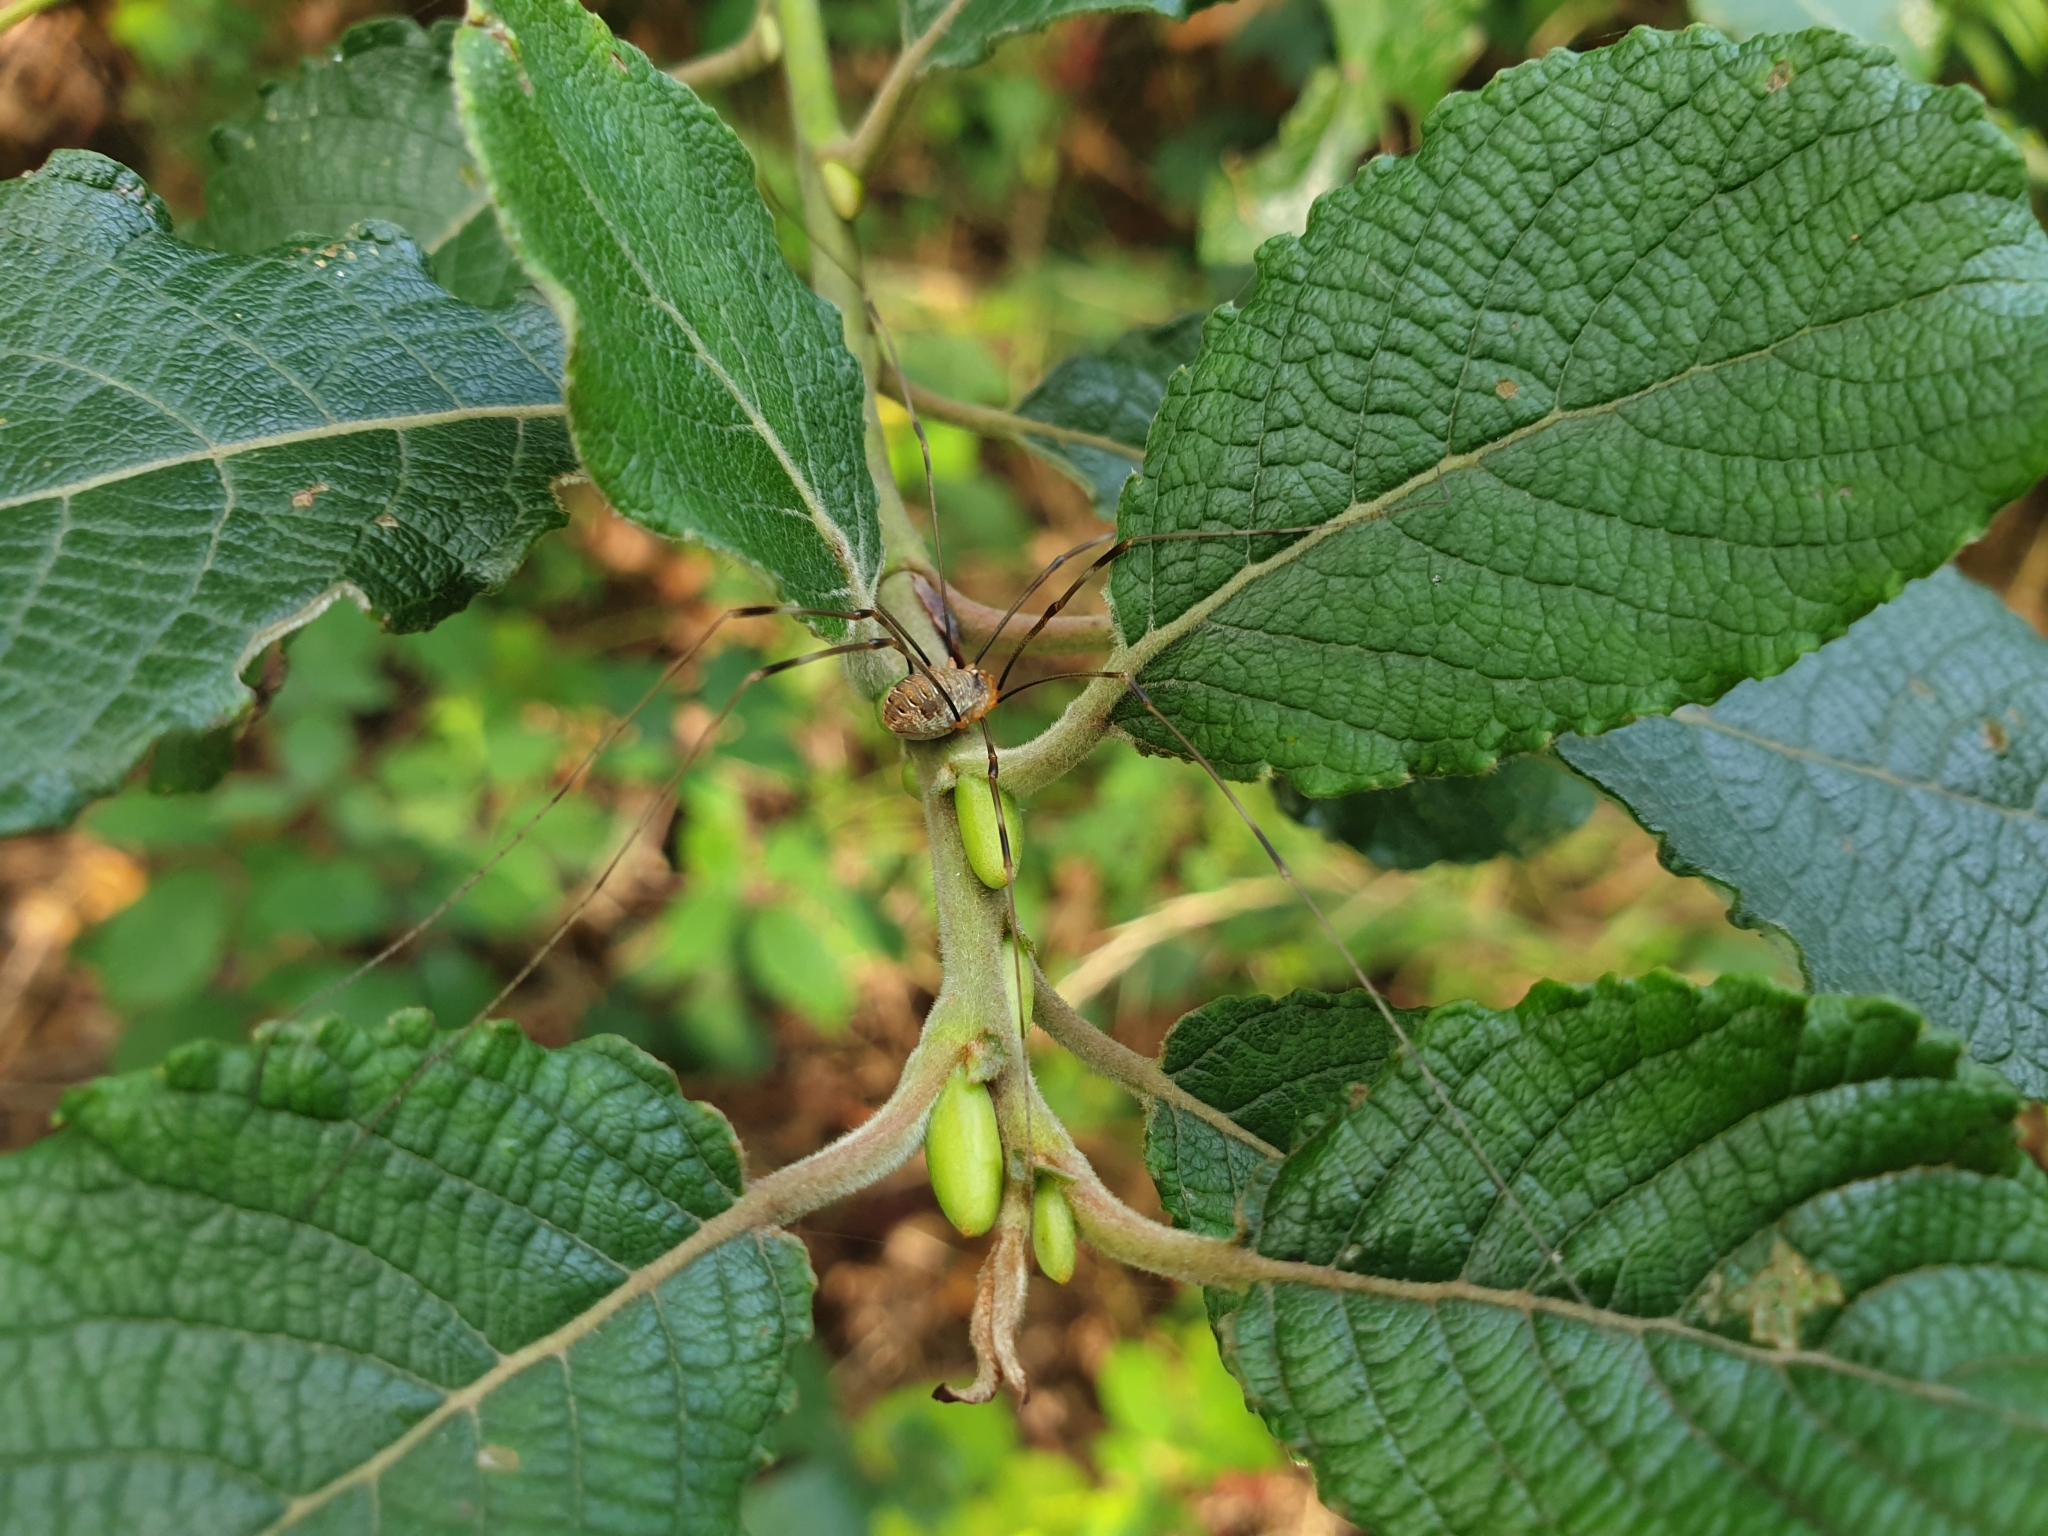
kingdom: Animalia
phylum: Arthropoda
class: Arachnida
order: Opiliones
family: Phalangiidae
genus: Opilio
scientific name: Opilio canestrinii
